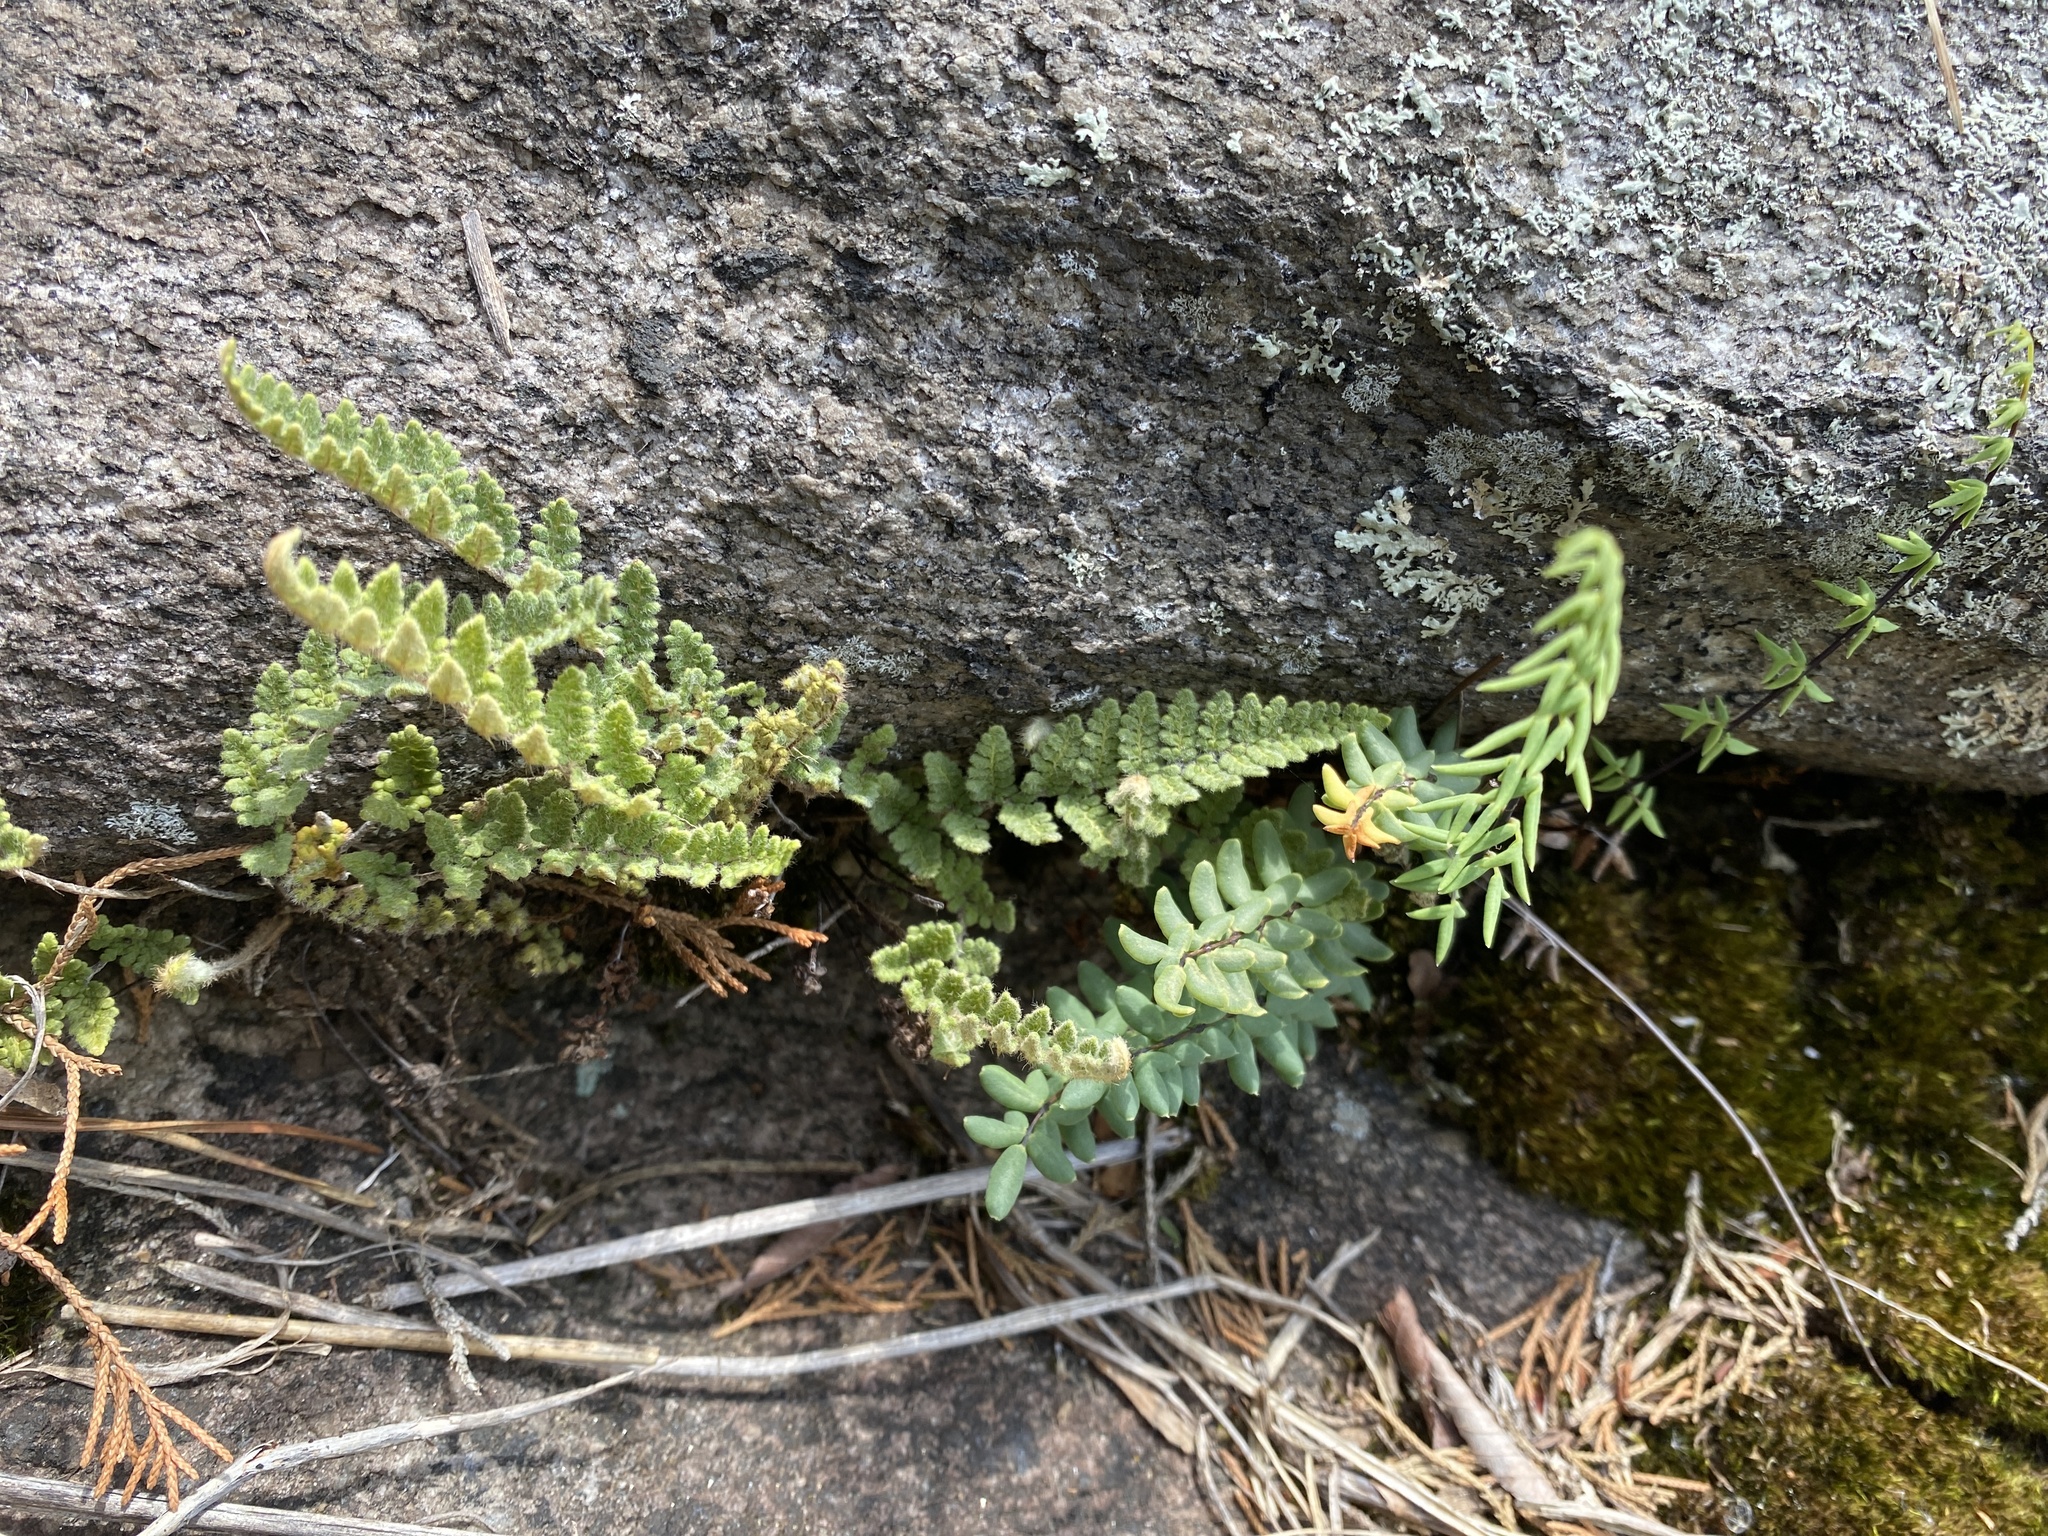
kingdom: Plantae
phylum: Tracheophyta
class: Polypodiopsida
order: Polypodiales
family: Pteridaceae
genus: Myriopteris
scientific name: Myriopteris tomentosa
